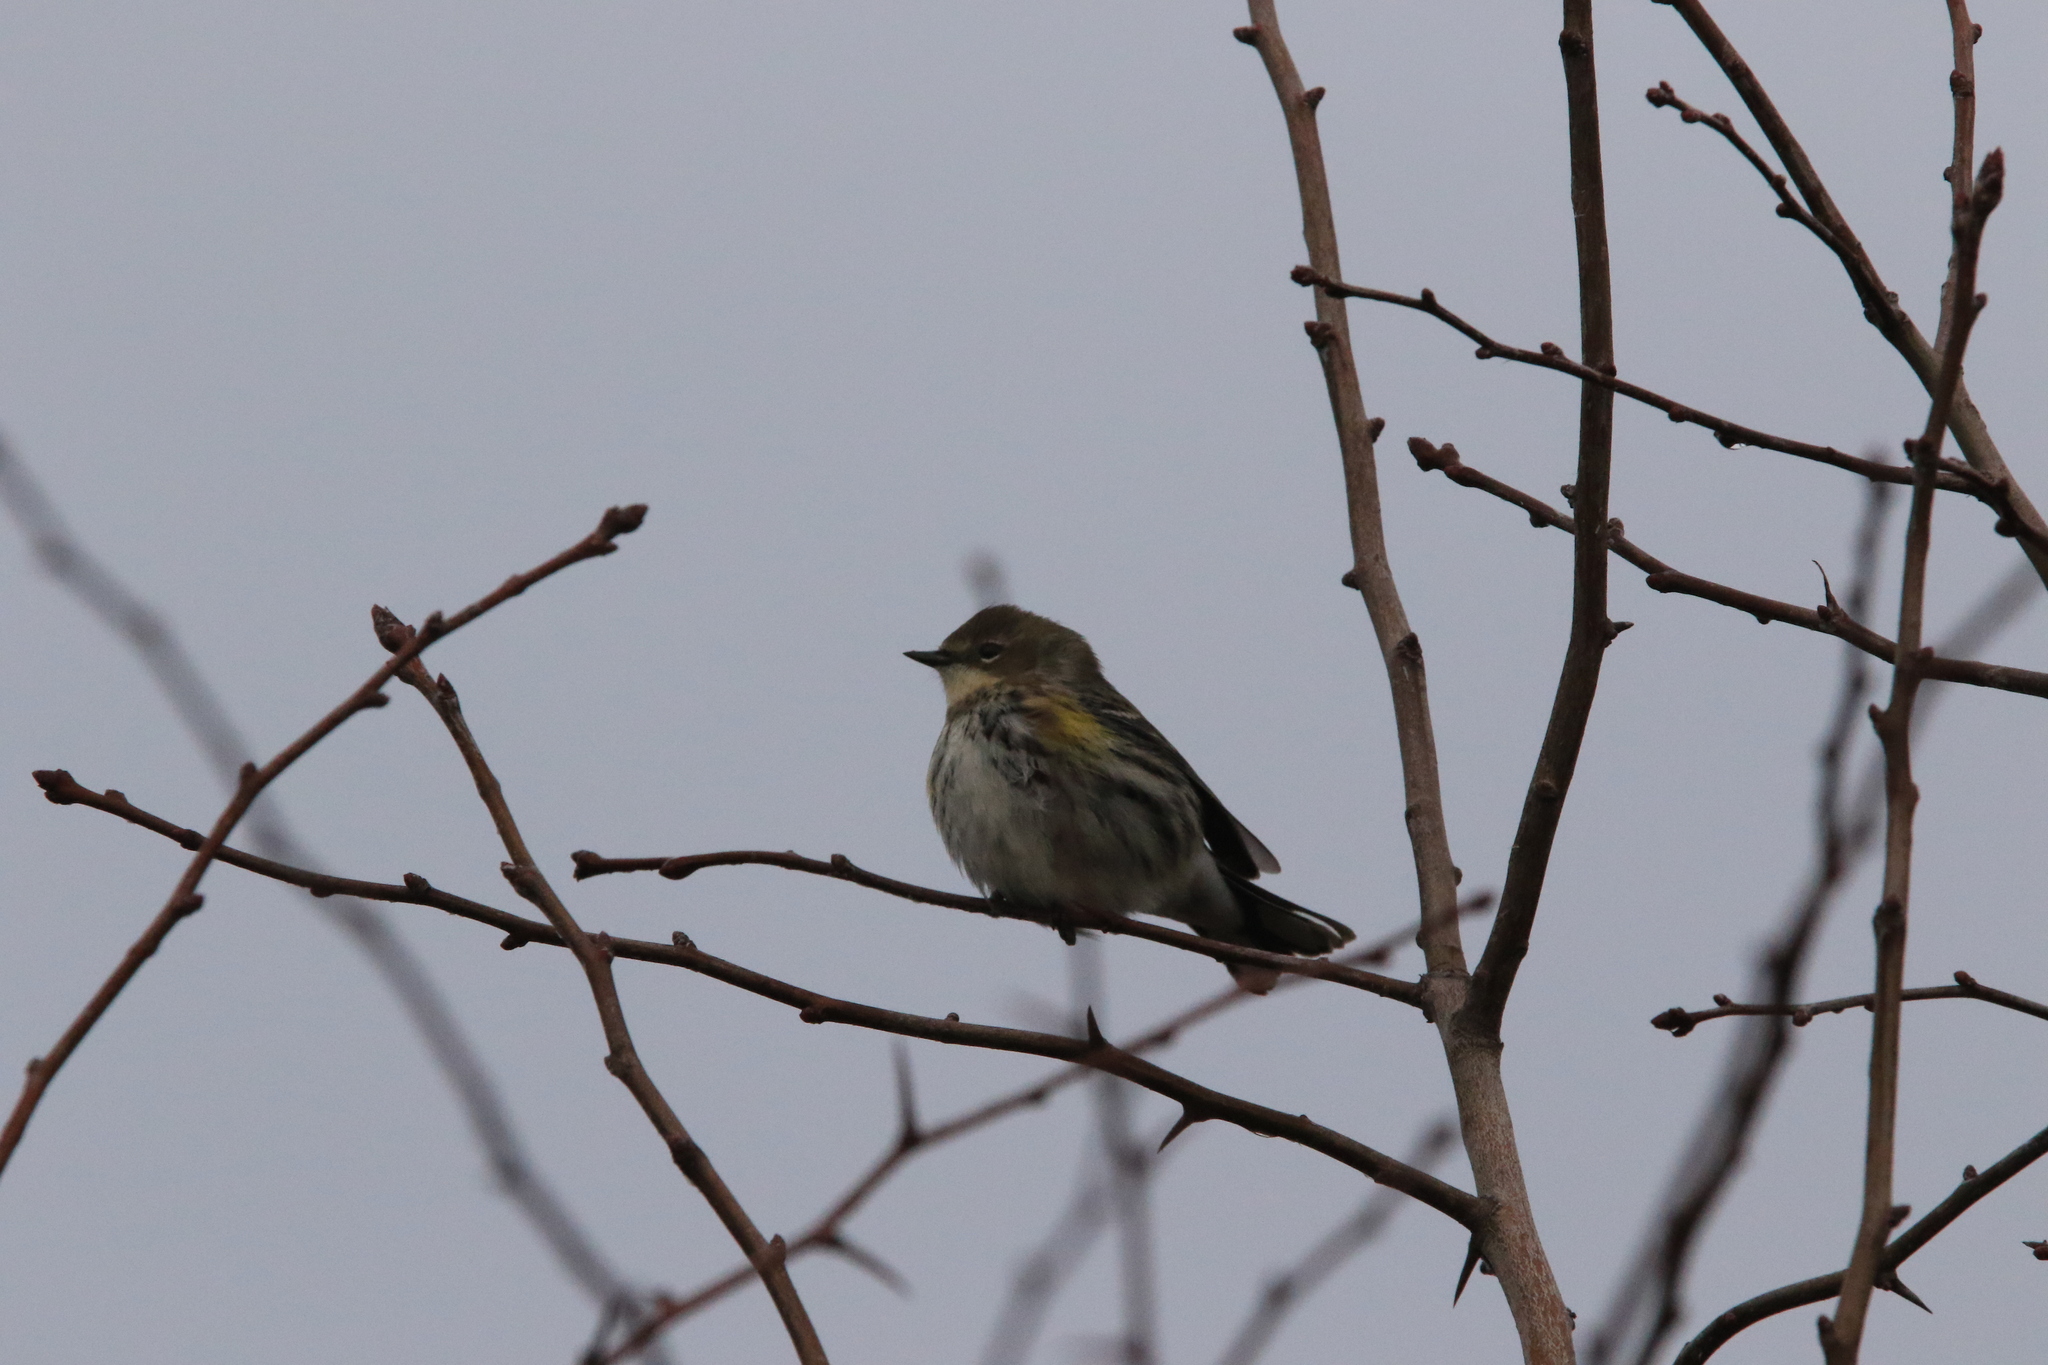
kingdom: Animalia
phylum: Chordata
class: Aves
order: Passeriformes
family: Parulidae
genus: Setophaga
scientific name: Setophaga coronata
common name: Myrtle warbler
